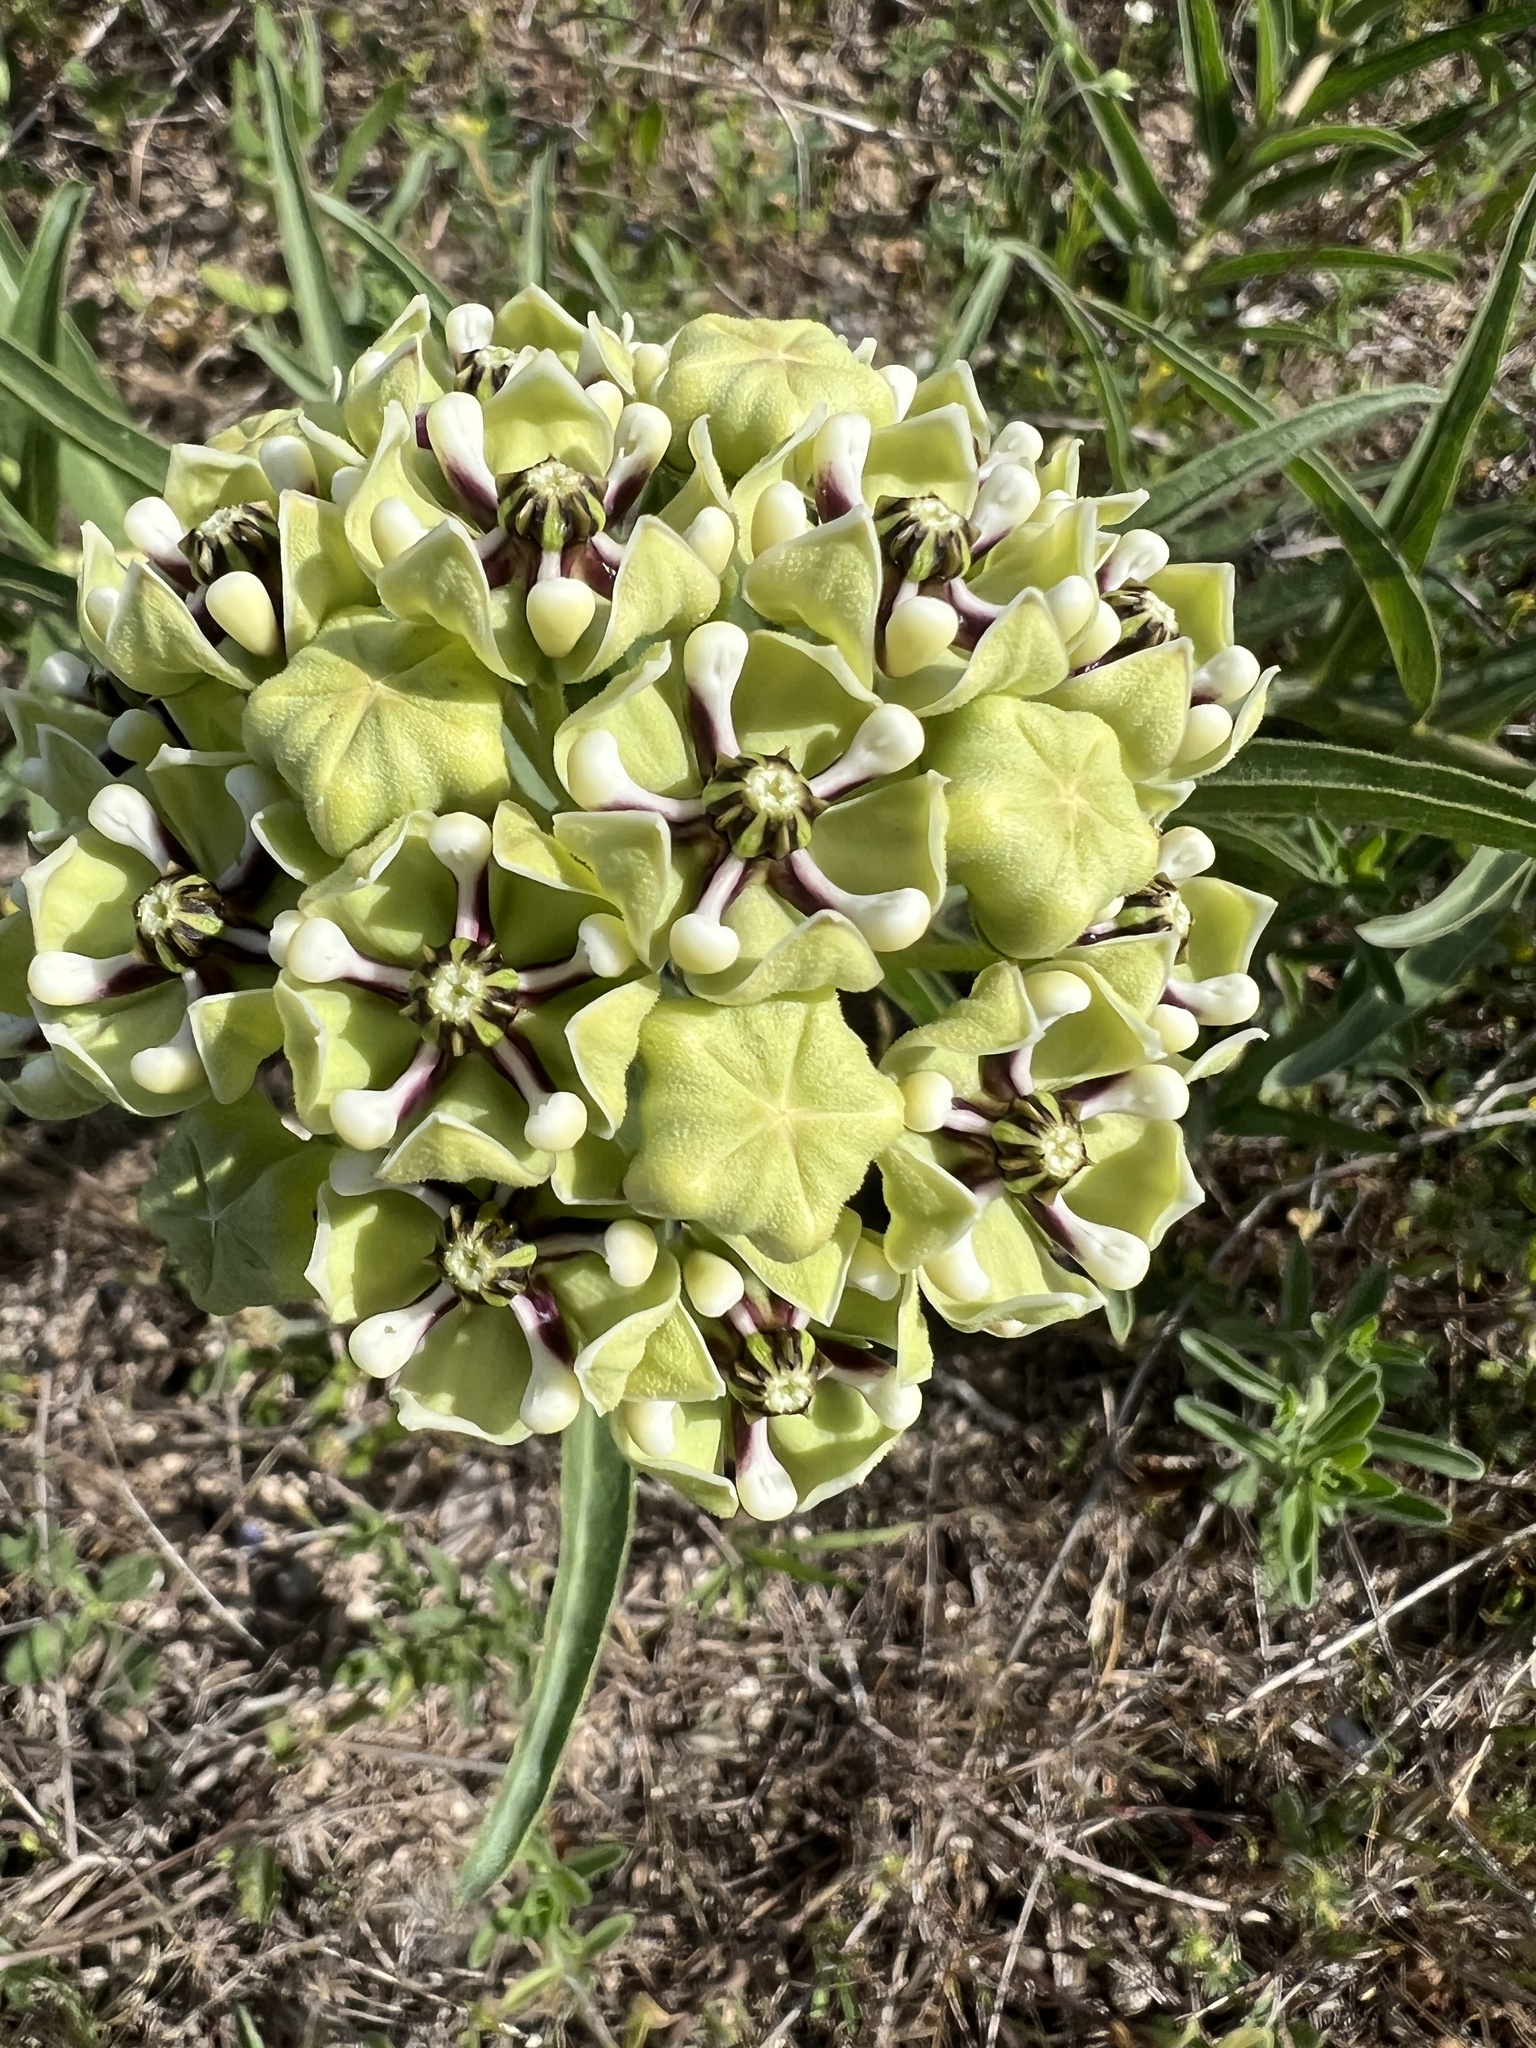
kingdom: Plantae
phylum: Tracheophyta
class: Magnoliopsida
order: Gentianales
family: Apocynaceae
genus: Asclepias
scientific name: Asclepias asperula
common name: Antelope horns
